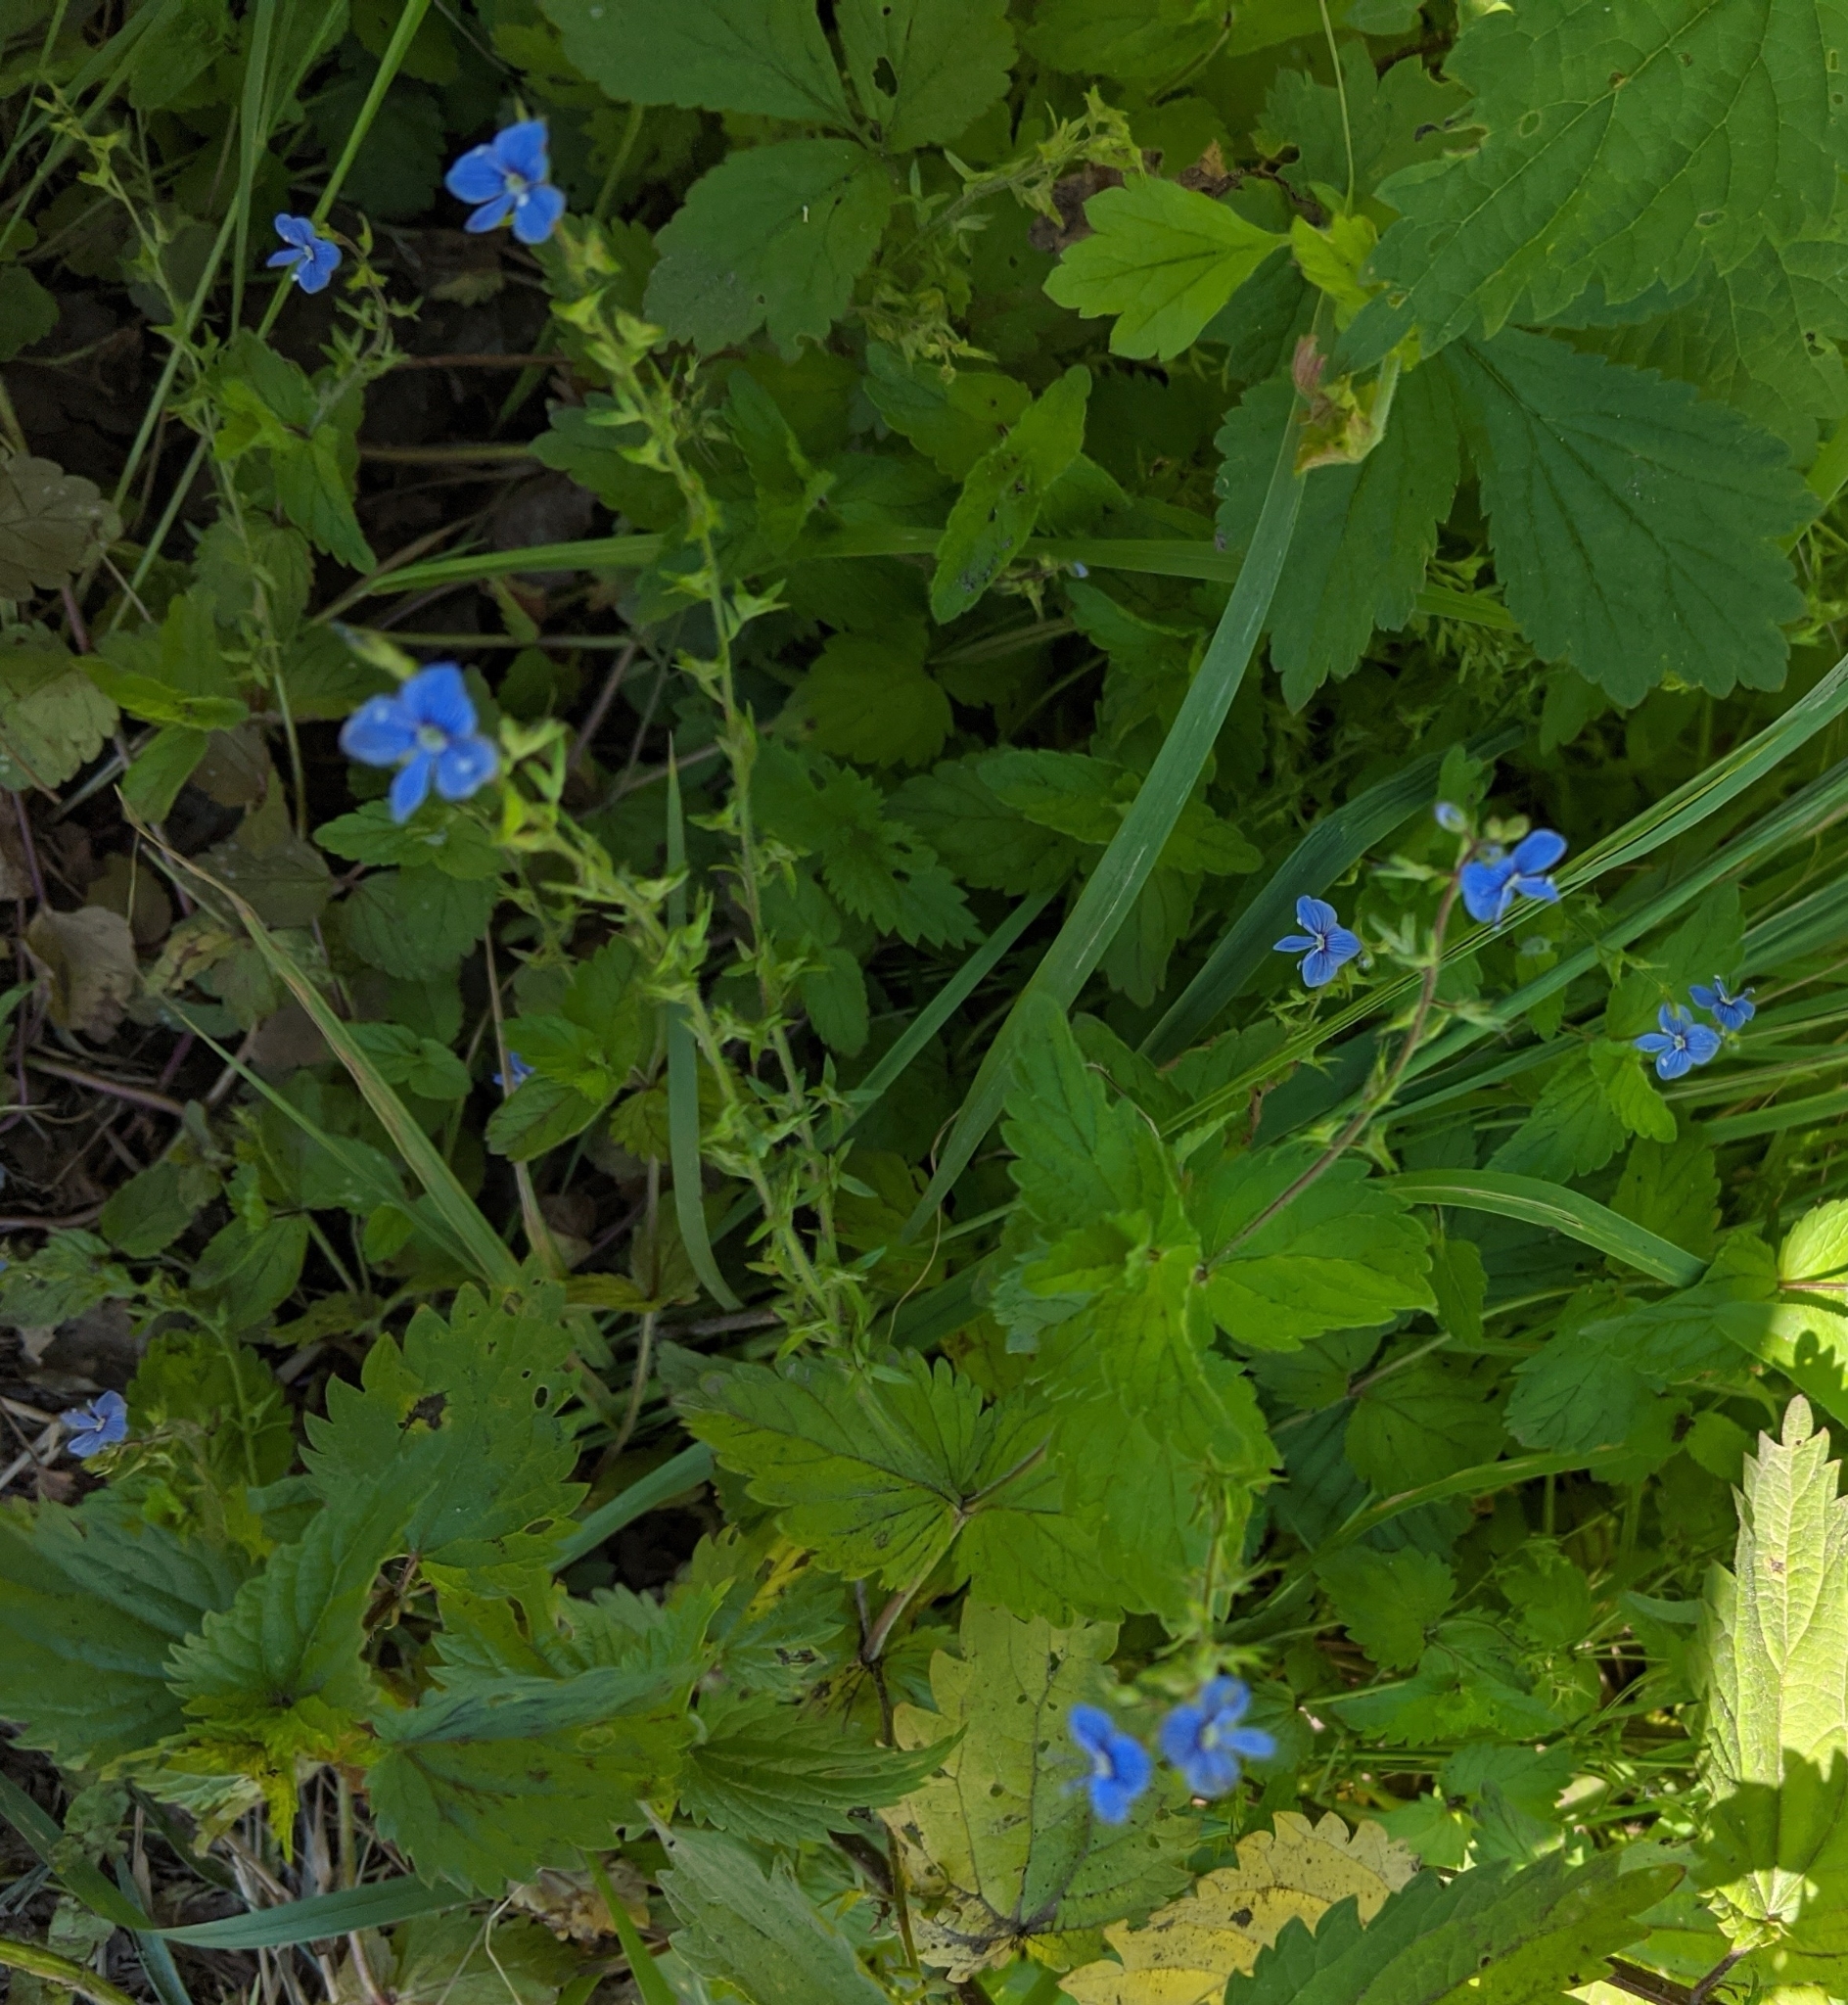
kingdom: Plantae
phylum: Tracheophyta
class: Magnoliopsida
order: Lamiales
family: Plantaginaceae
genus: Veronica
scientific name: Veronica chamaedrys
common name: Germander speedwell
